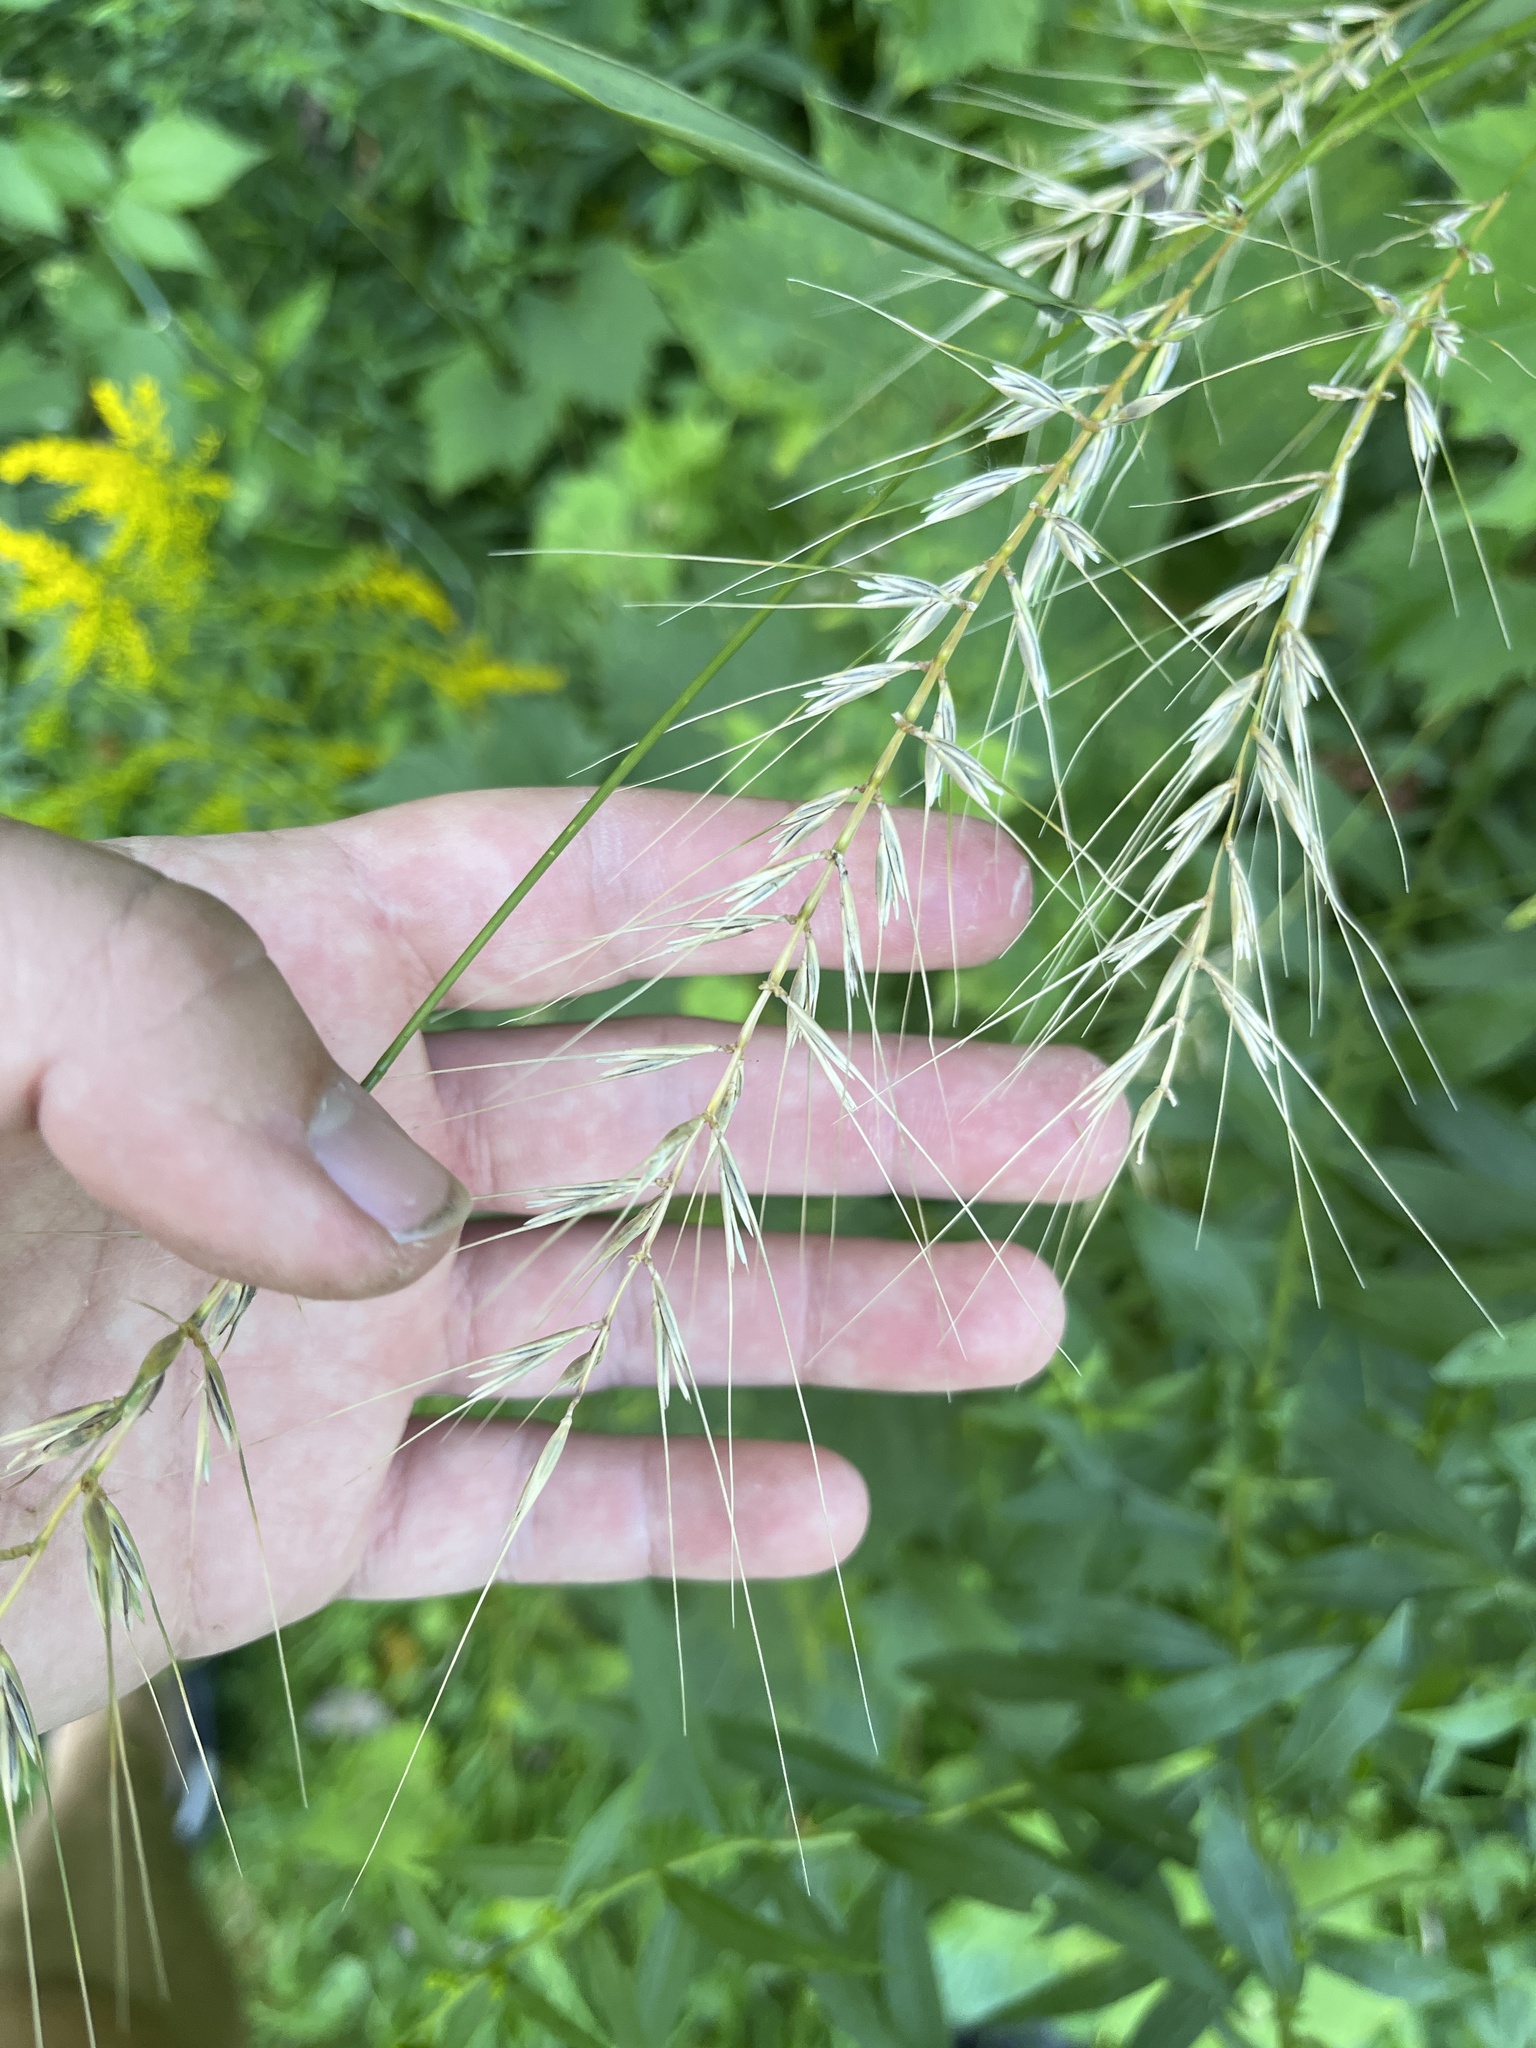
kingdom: Plantae
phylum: Tracheophyta
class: Liliopsida
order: Poales
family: Poaceae
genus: Elymus
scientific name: Elymus hystrix
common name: Bottlebrush grass
